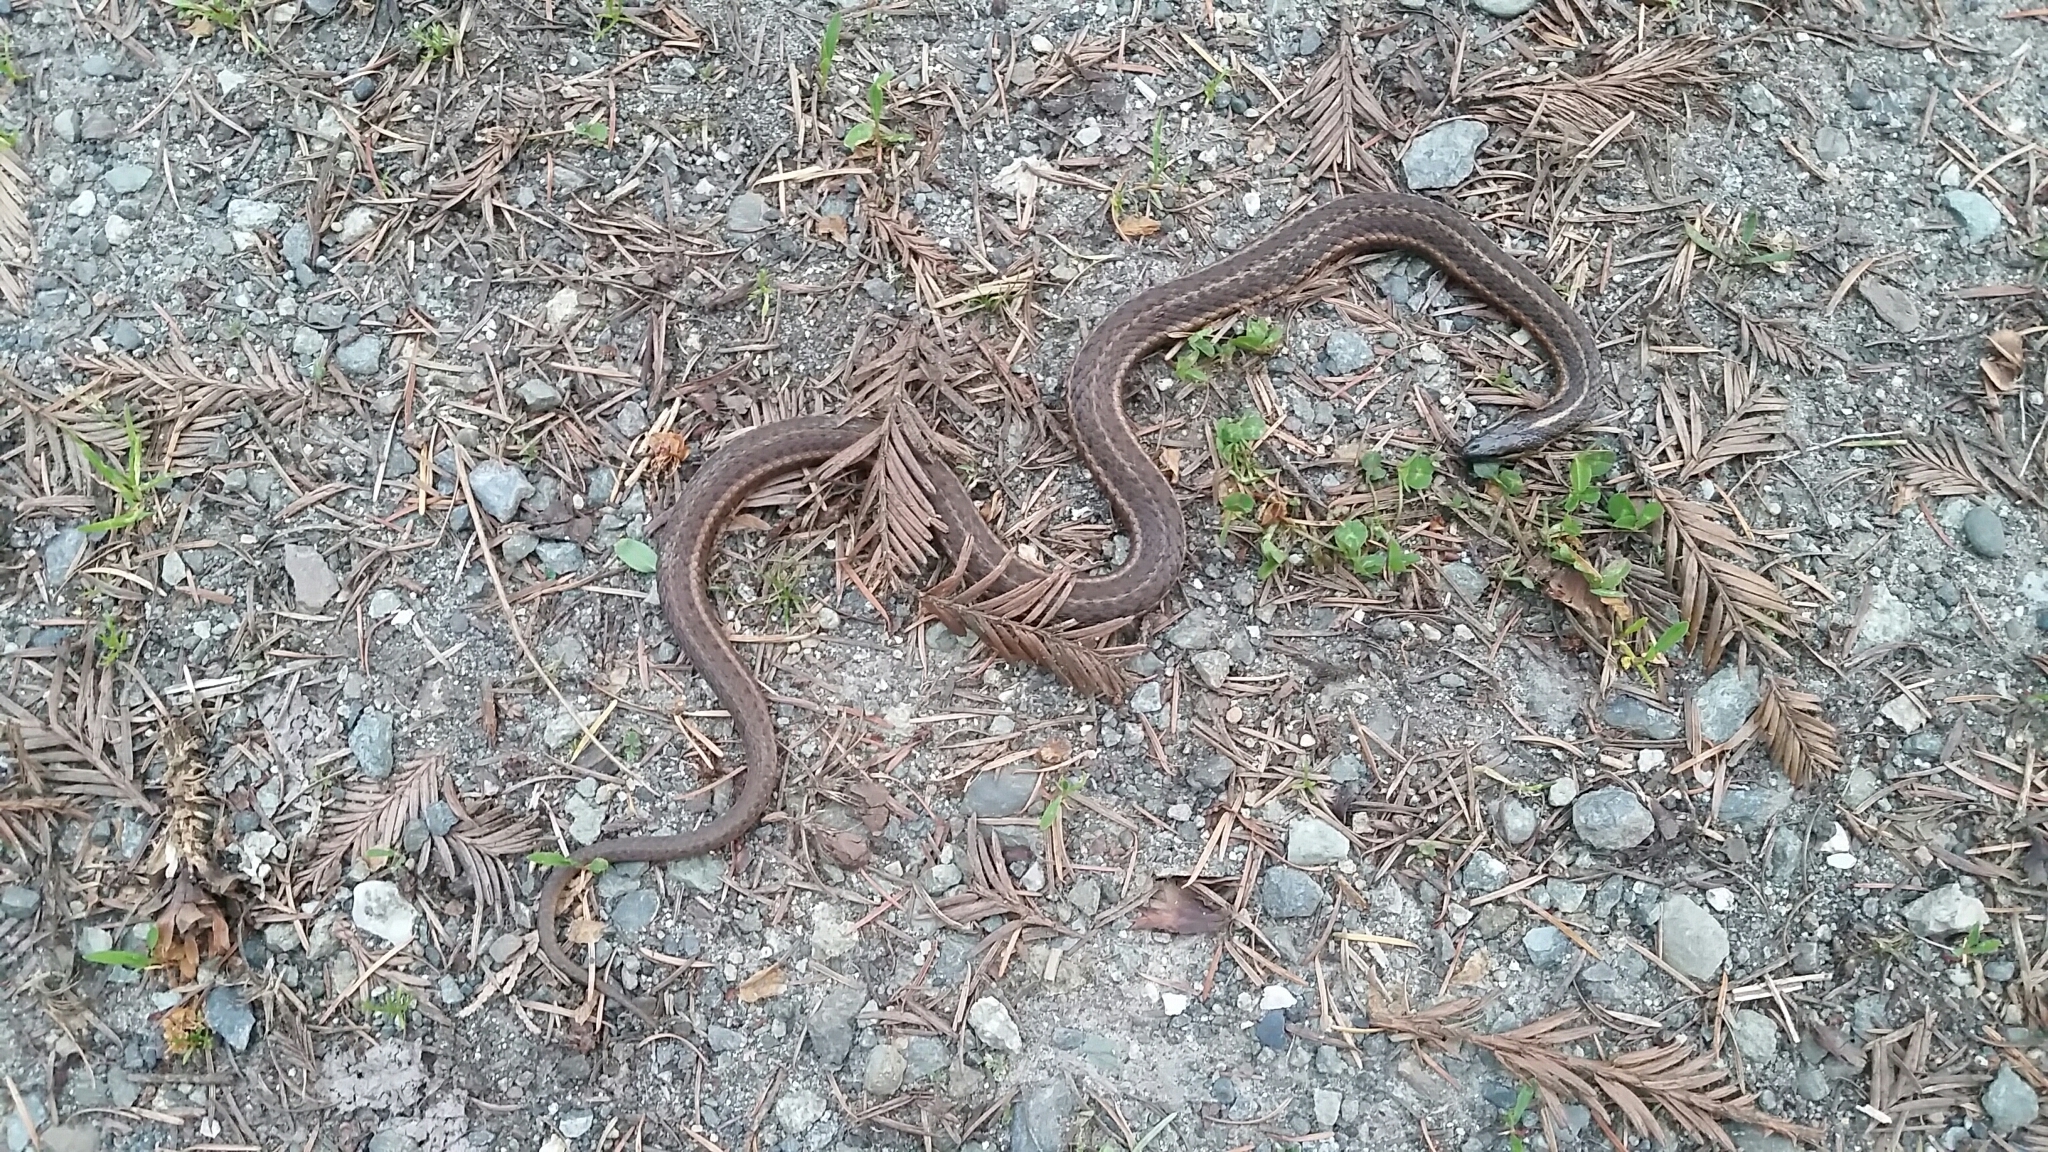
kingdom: Animalia
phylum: Chordata
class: Squamata
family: Colubridae
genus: Thamnophis
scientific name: Thamnophis ordinoides
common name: Northwestern garter snake
